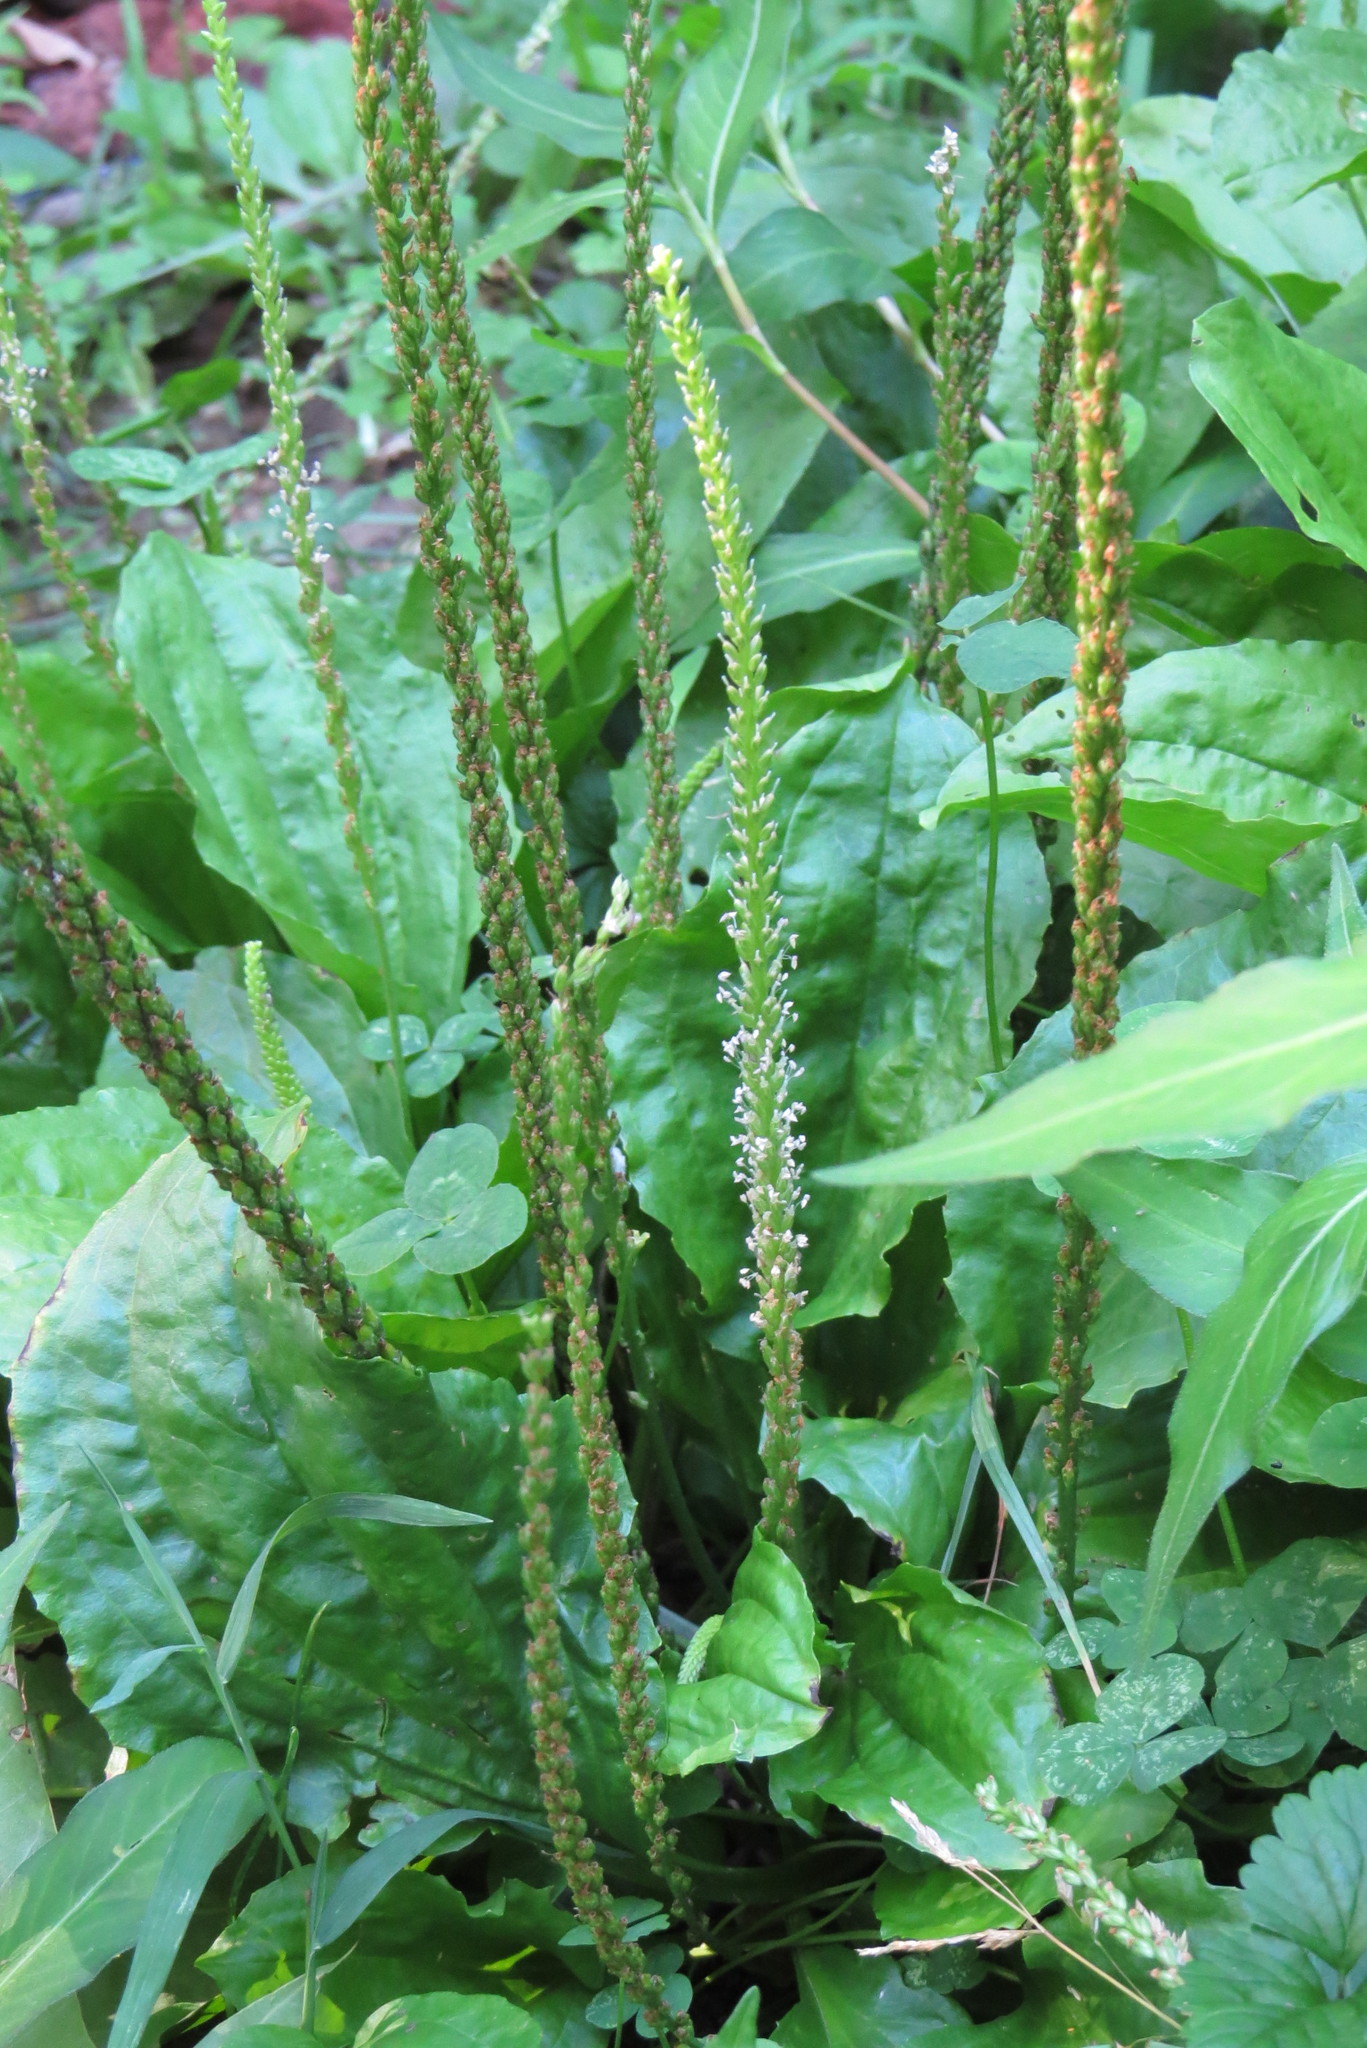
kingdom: Plantae
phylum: Tracheophyta
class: Magnoliopsida
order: Lamiales
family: Plantaginaceae
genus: Plantago
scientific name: Plantago rugelii
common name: American plantain
